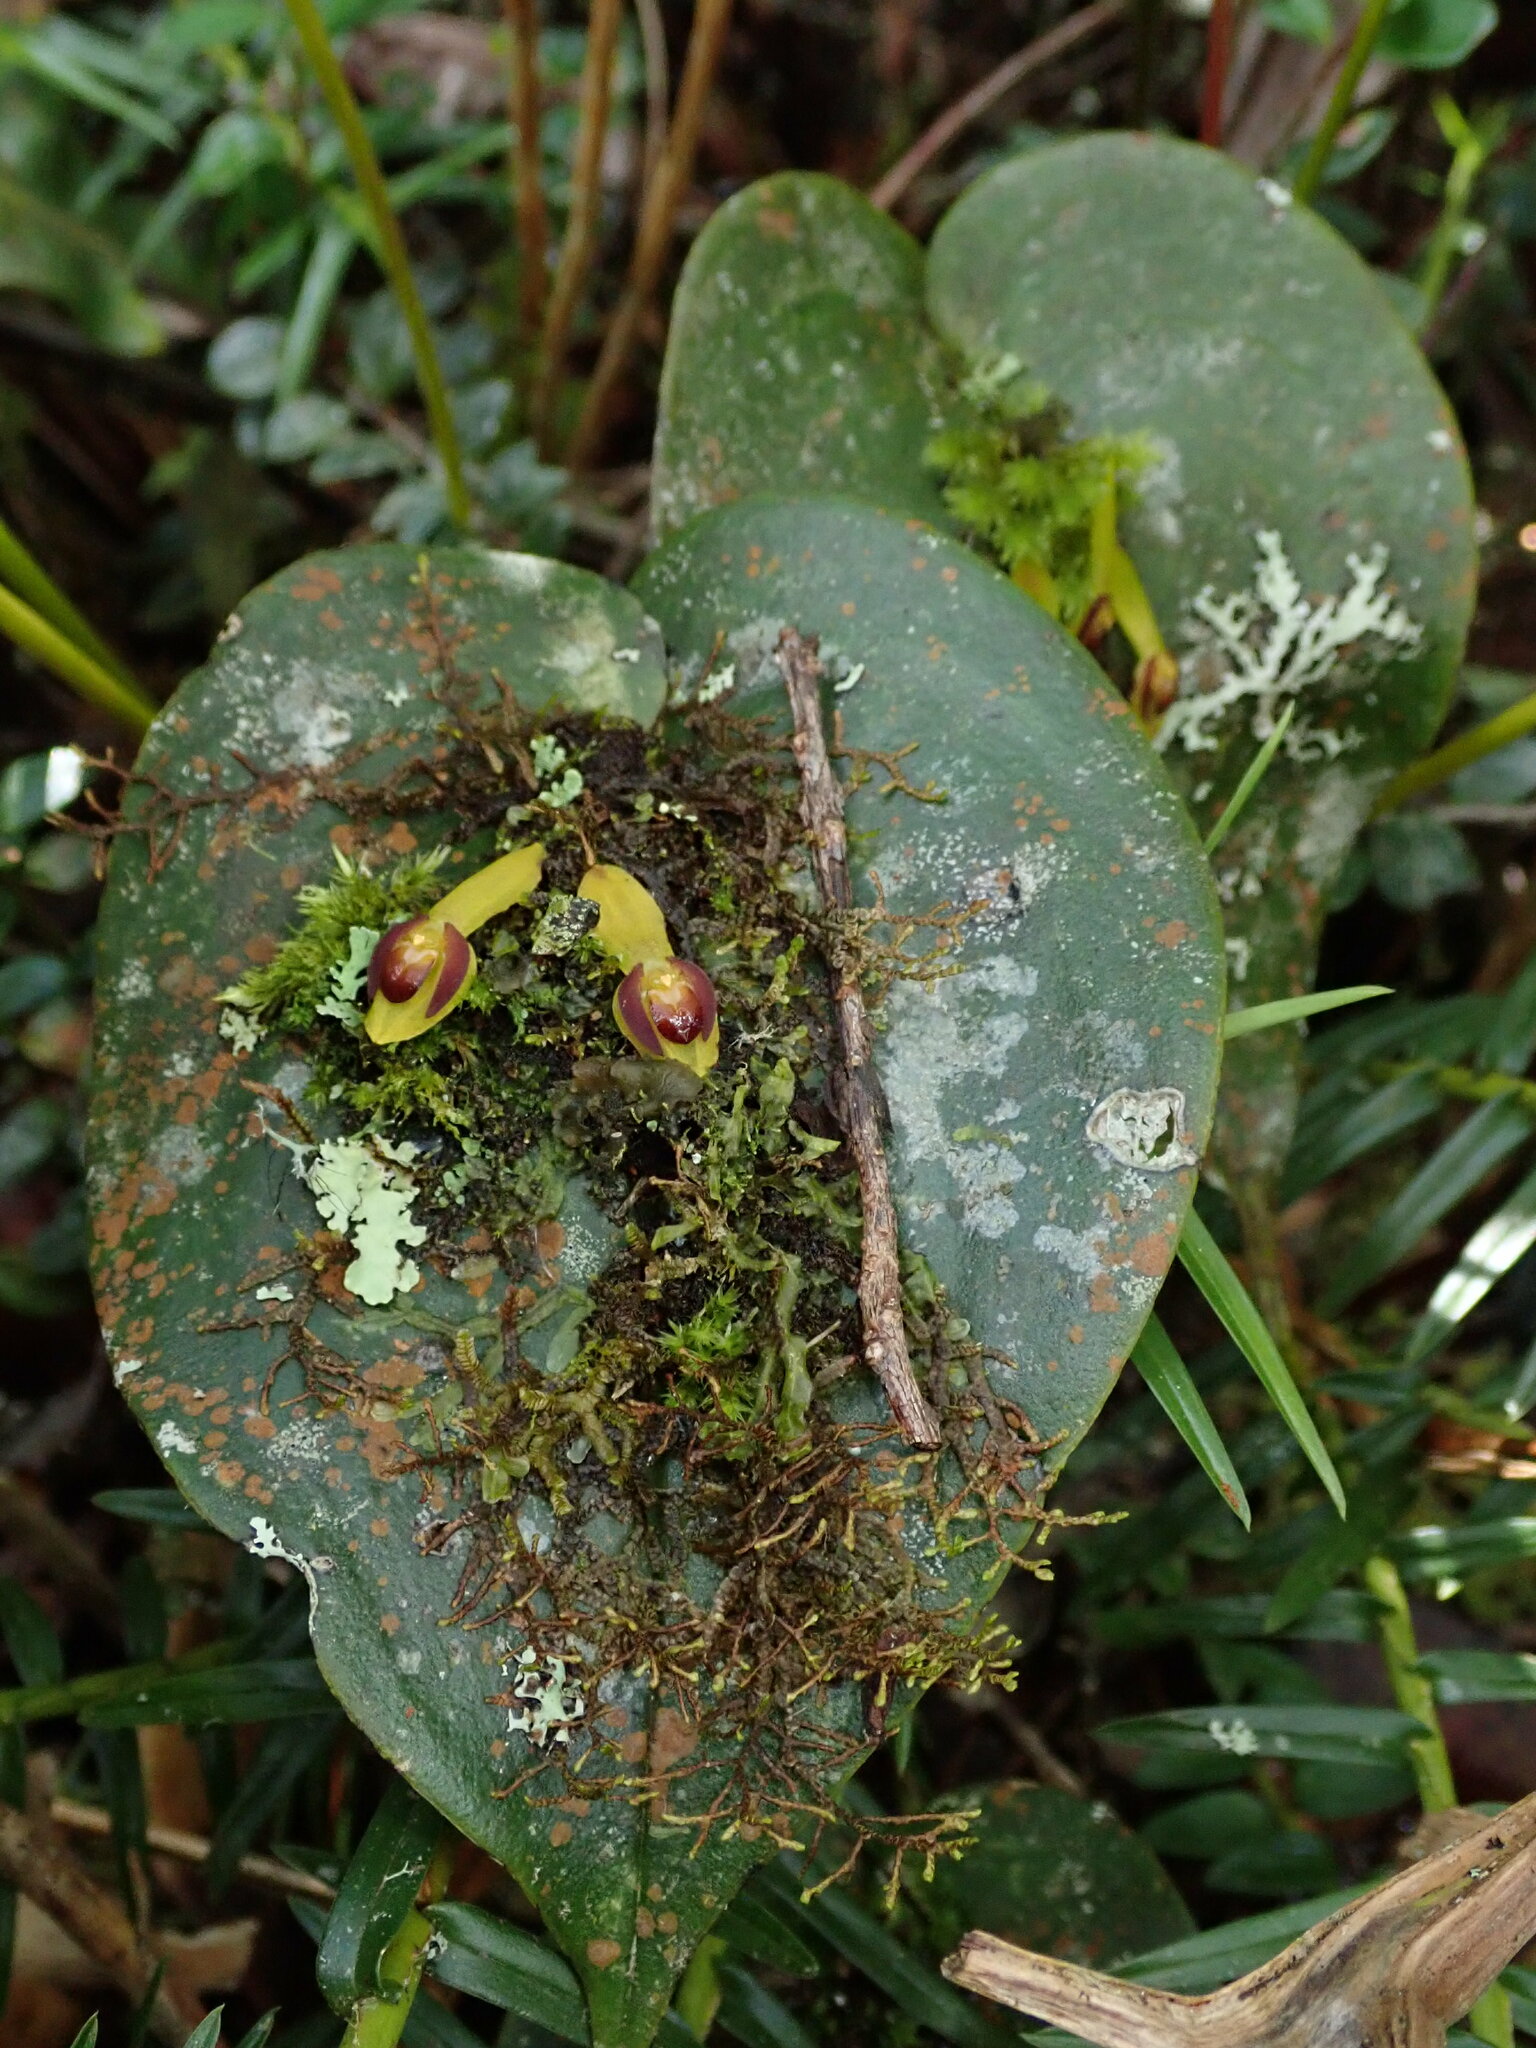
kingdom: Plantae
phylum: Tracheophyta
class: Liliopsida
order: Asparagales
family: Orchidaceae
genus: Pleurothallis
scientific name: Pleurothallis cordata
